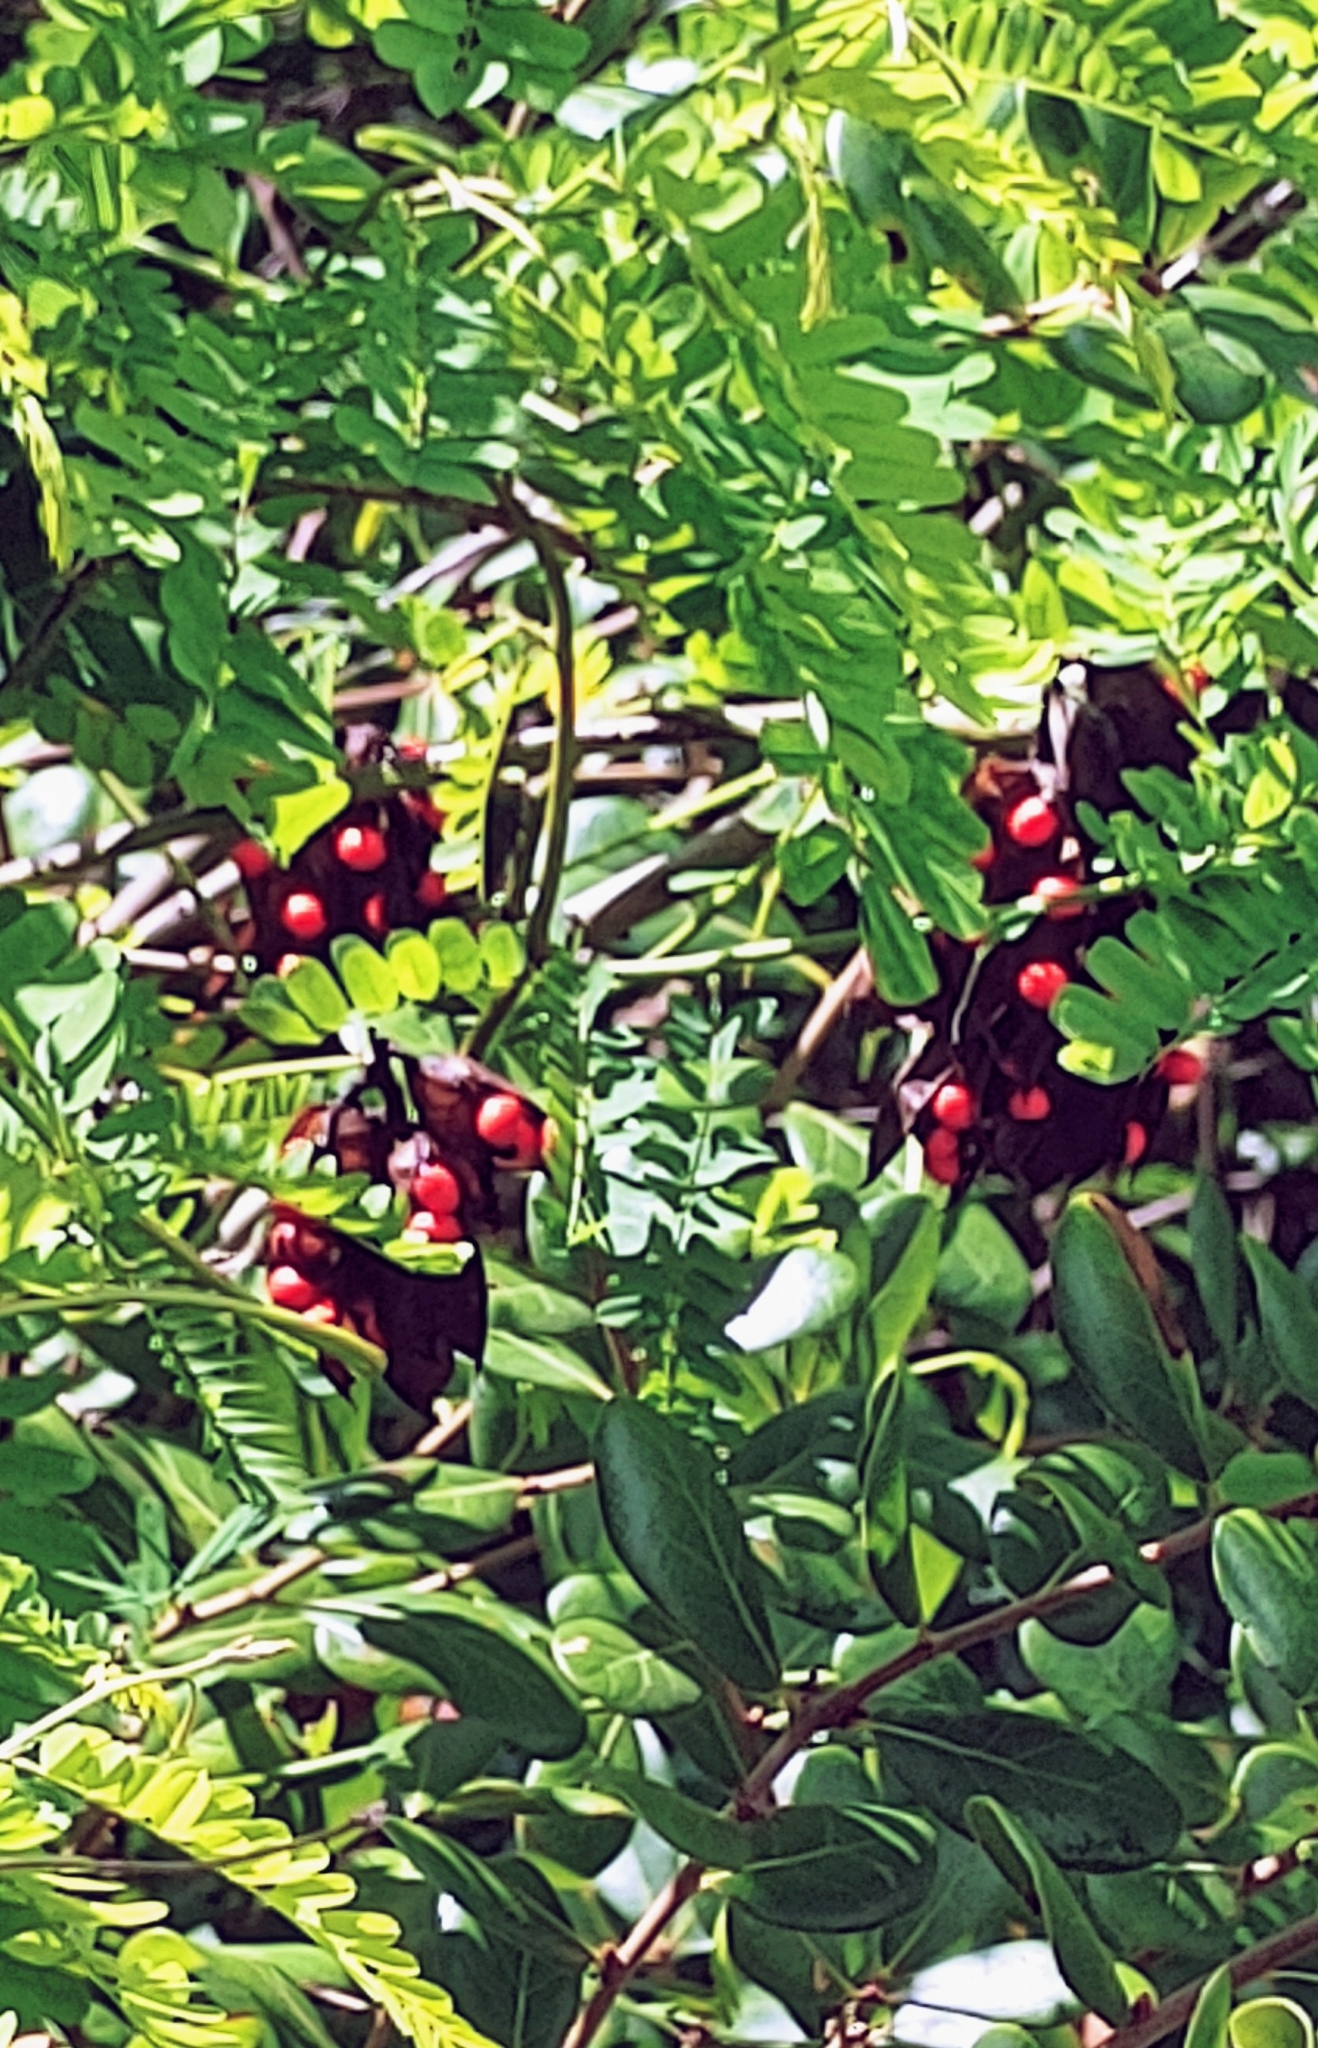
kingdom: Plantae
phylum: Tracheophyta
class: Magnoliopsida
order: Fabales
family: Fabaceae
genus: Abrus
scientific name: Abrus precatorius
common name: Rosarypea
